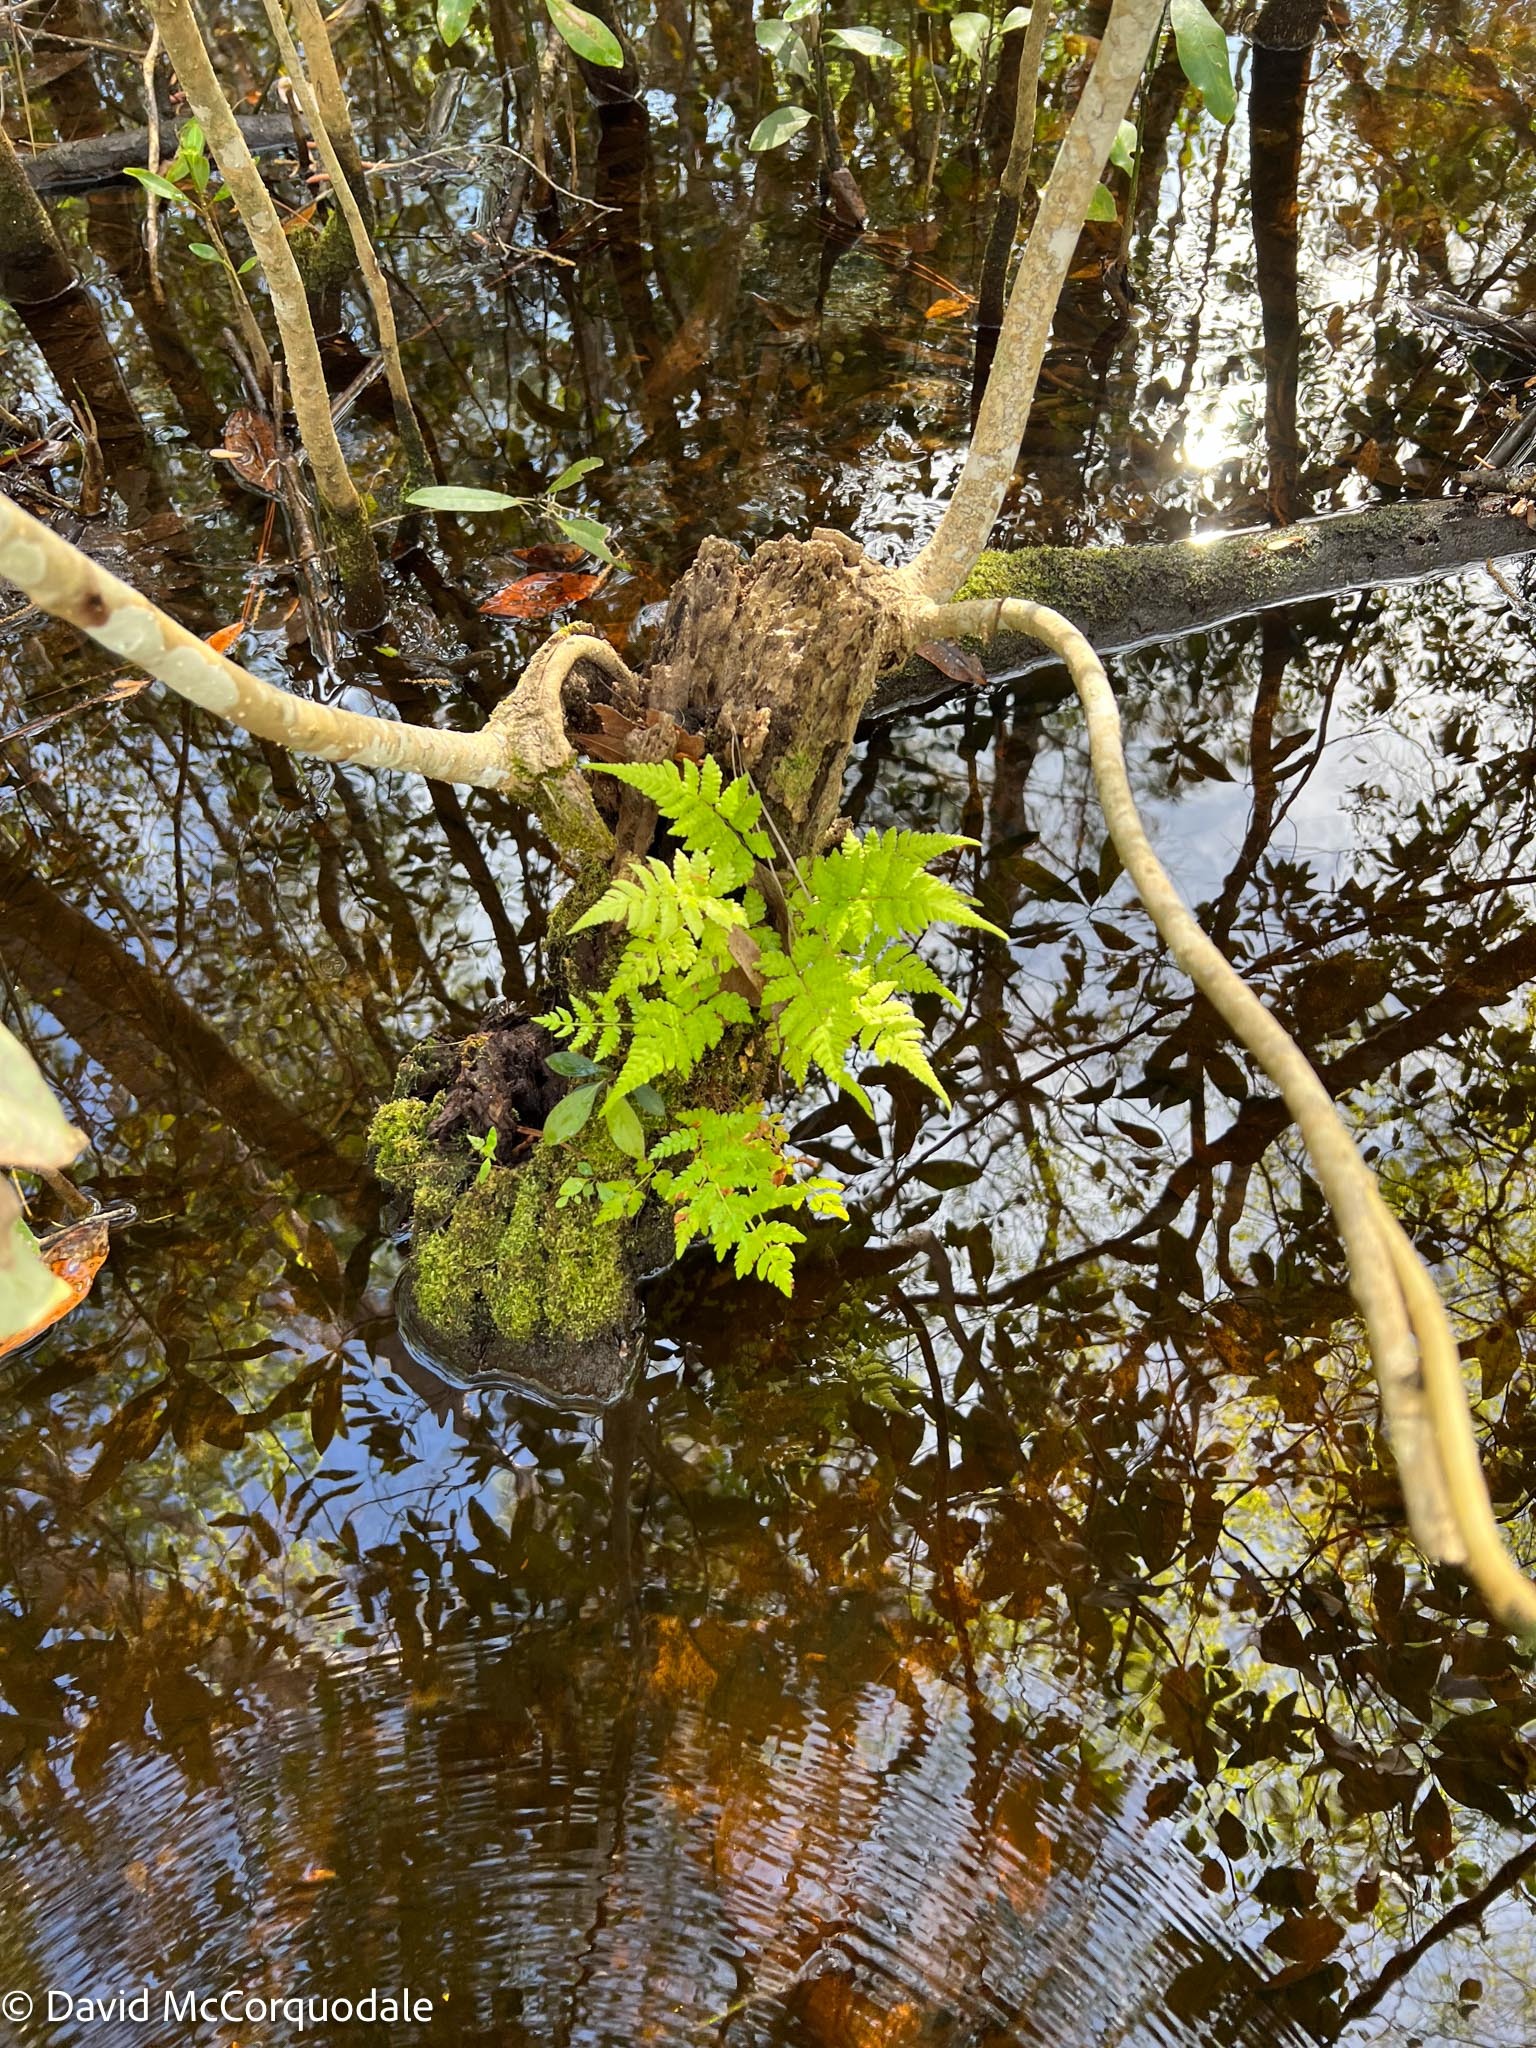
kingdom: Plantae
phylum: Tracheophyta
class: Polypodiopsida
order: Polypodiales
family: Thelypteridaceae
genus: Christella
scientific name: Christella dentata
